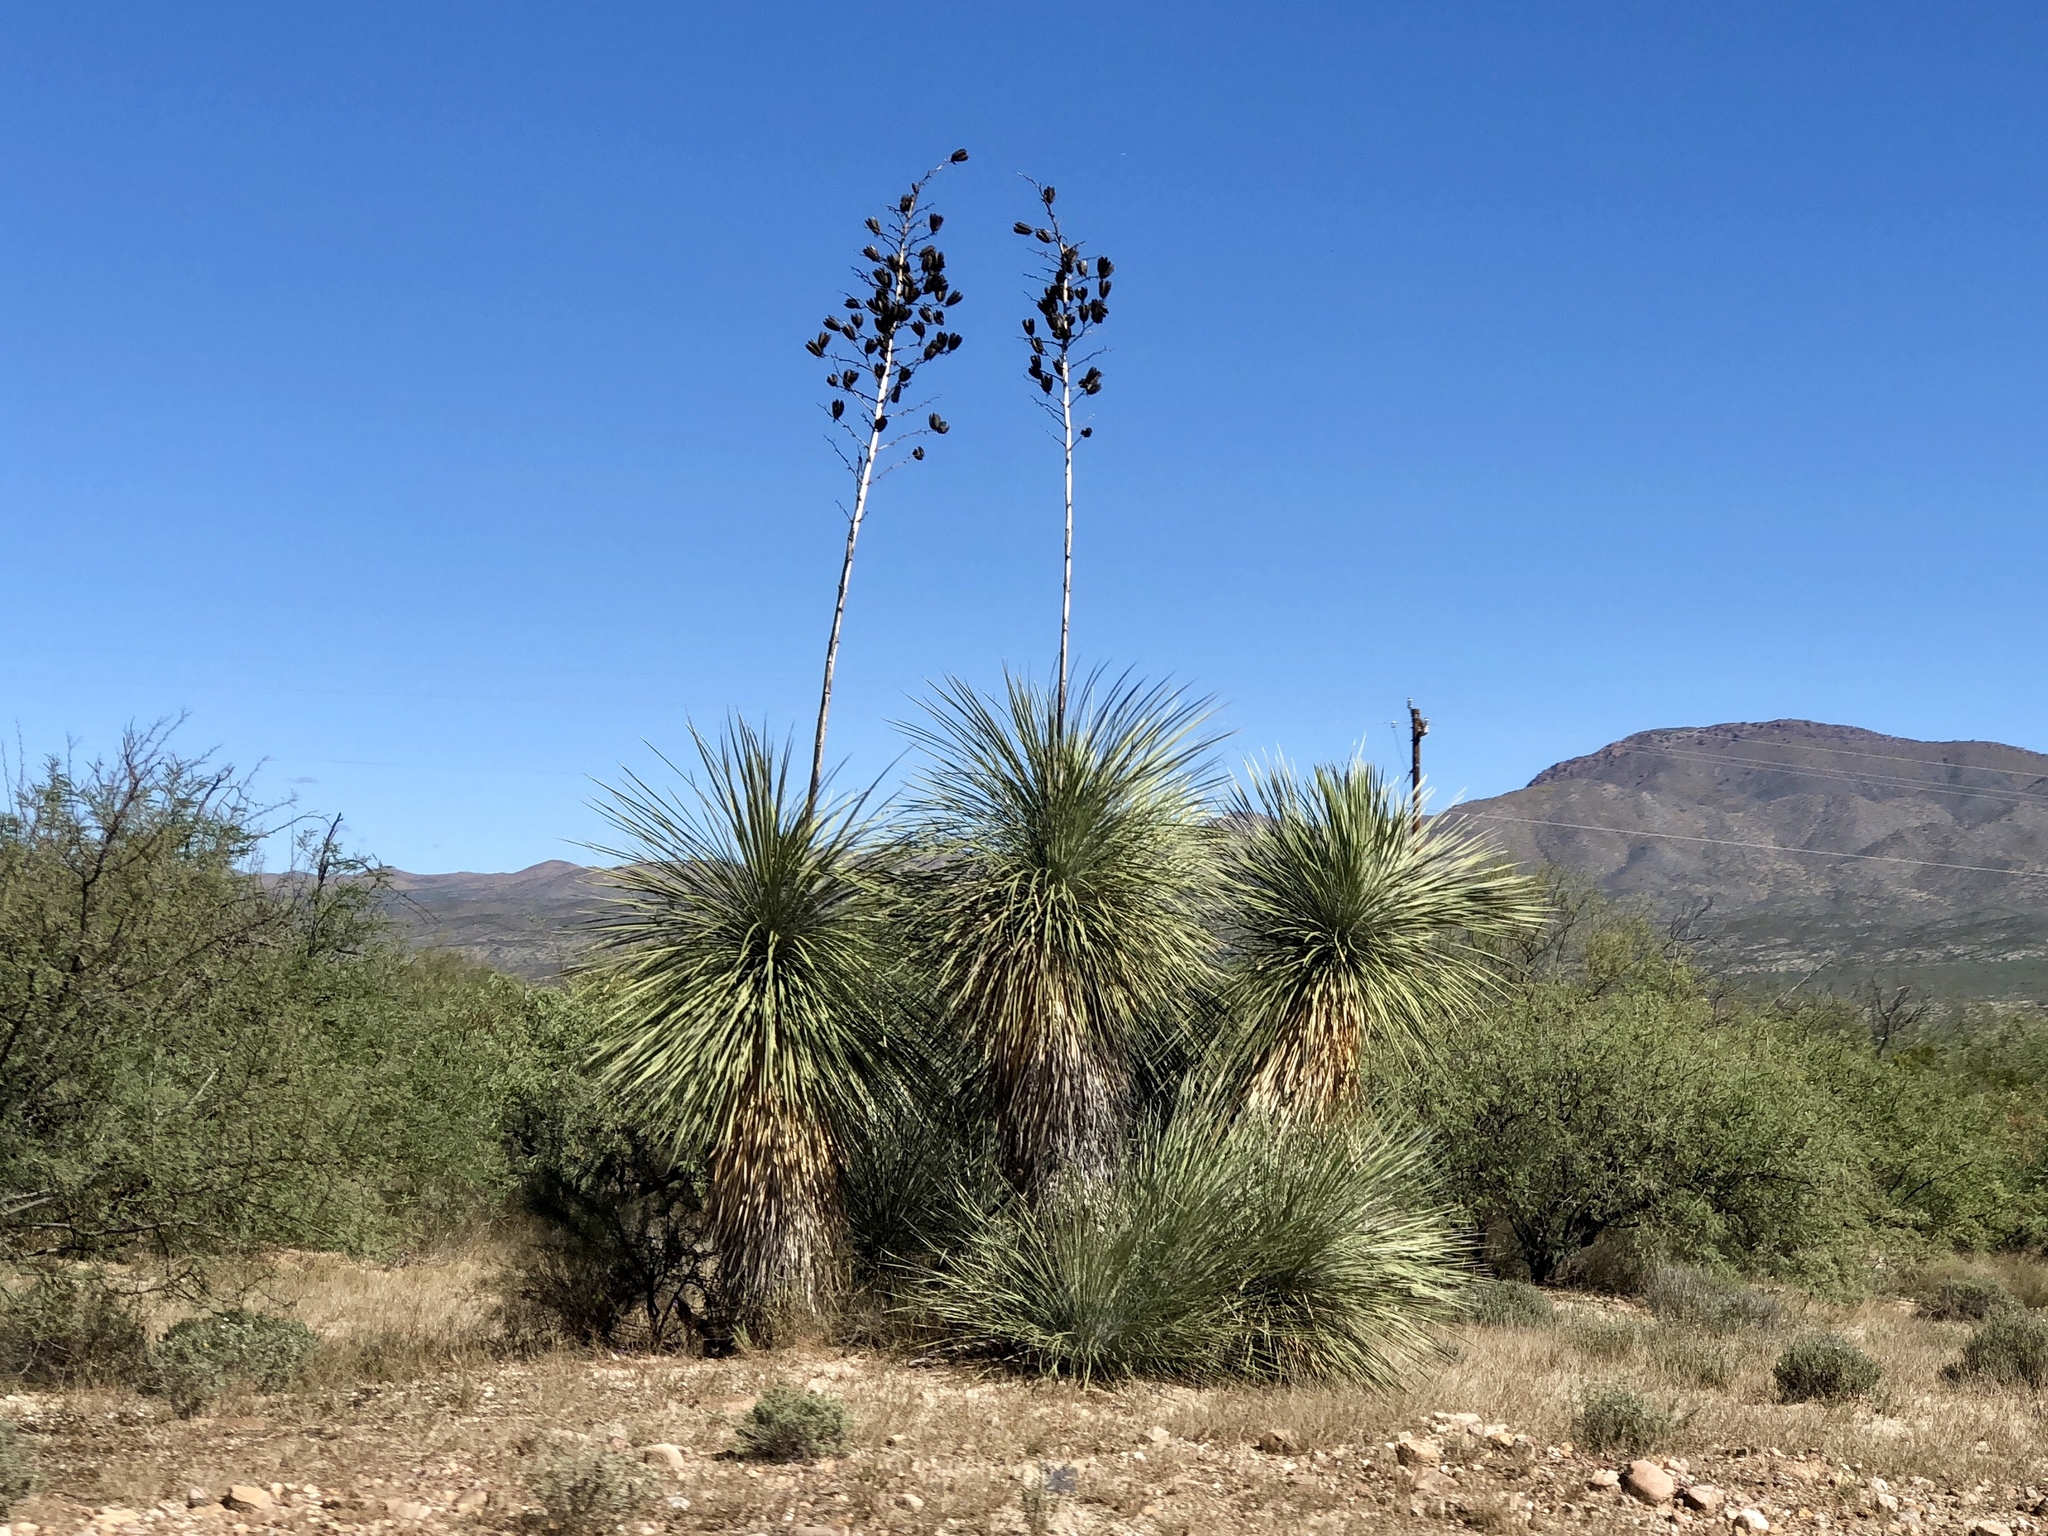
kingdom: Plantae
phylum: Tracheophyta
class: Liliopsida
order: Asparagales
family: Asparagaceae
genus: Yucca
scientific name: Yucca elata
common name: Palmella
